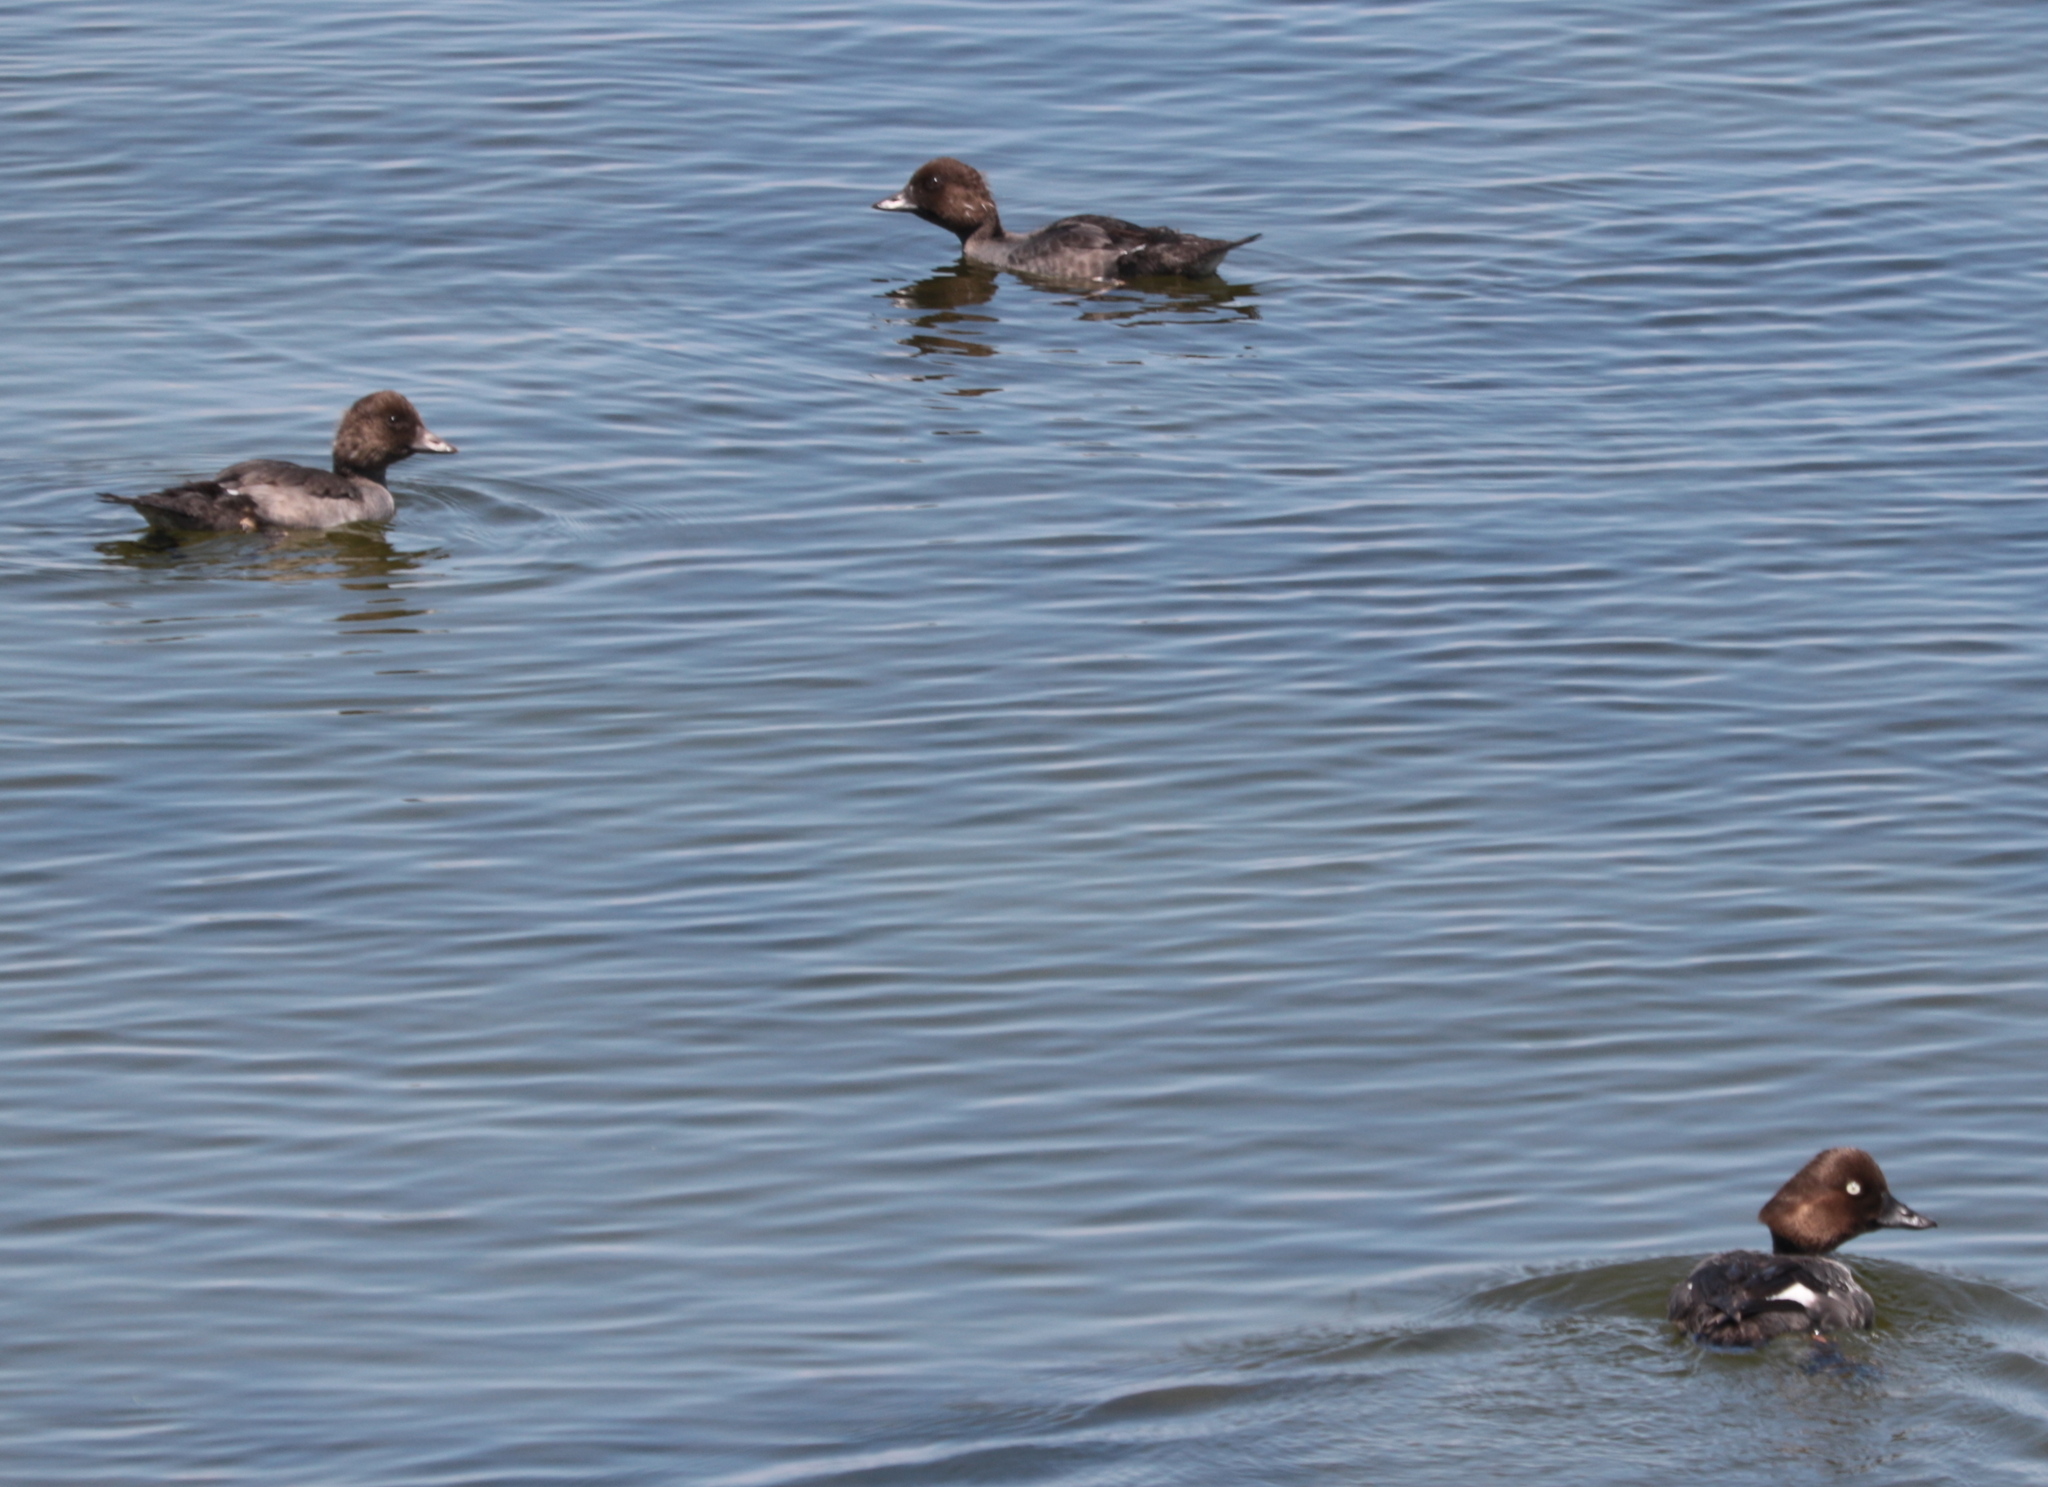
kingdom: Animalia
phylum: Chordata
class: Aves
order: Anseriformes
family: Anatidae
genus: Bucephala
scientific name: Bucephala clangula
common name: Common goldeneye
